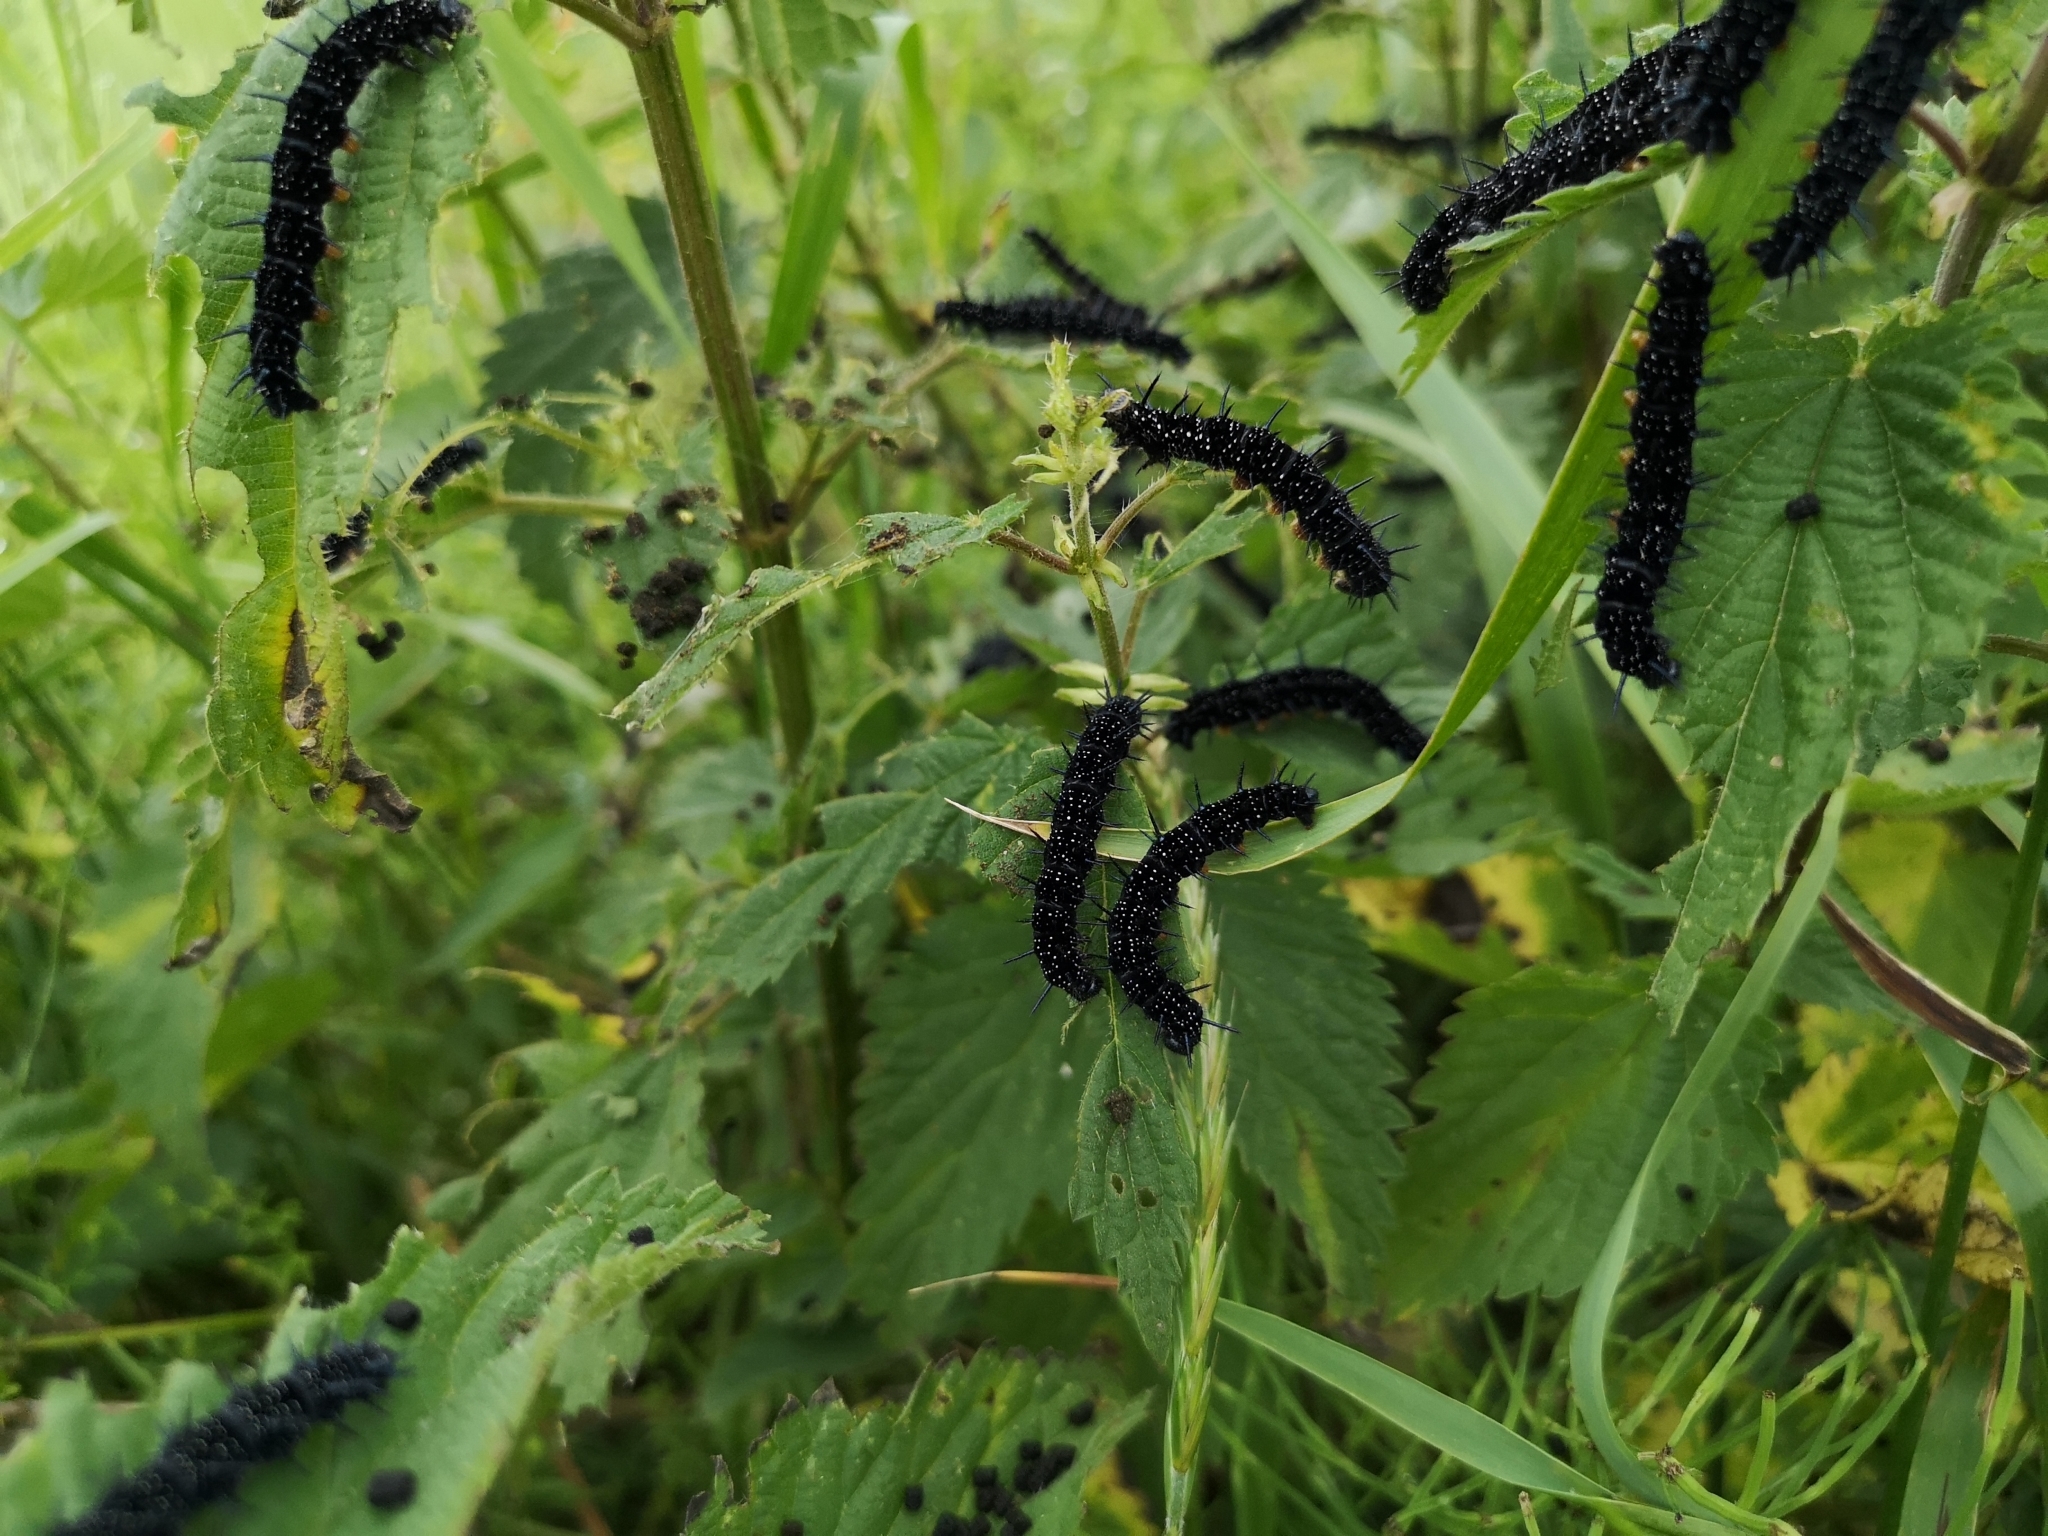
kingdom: Animalia
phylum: Arthropoda
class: Insecta
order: Lepidoptera
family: Nymphalidae
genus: Aglais
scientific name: Aglais io
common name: Peacock
